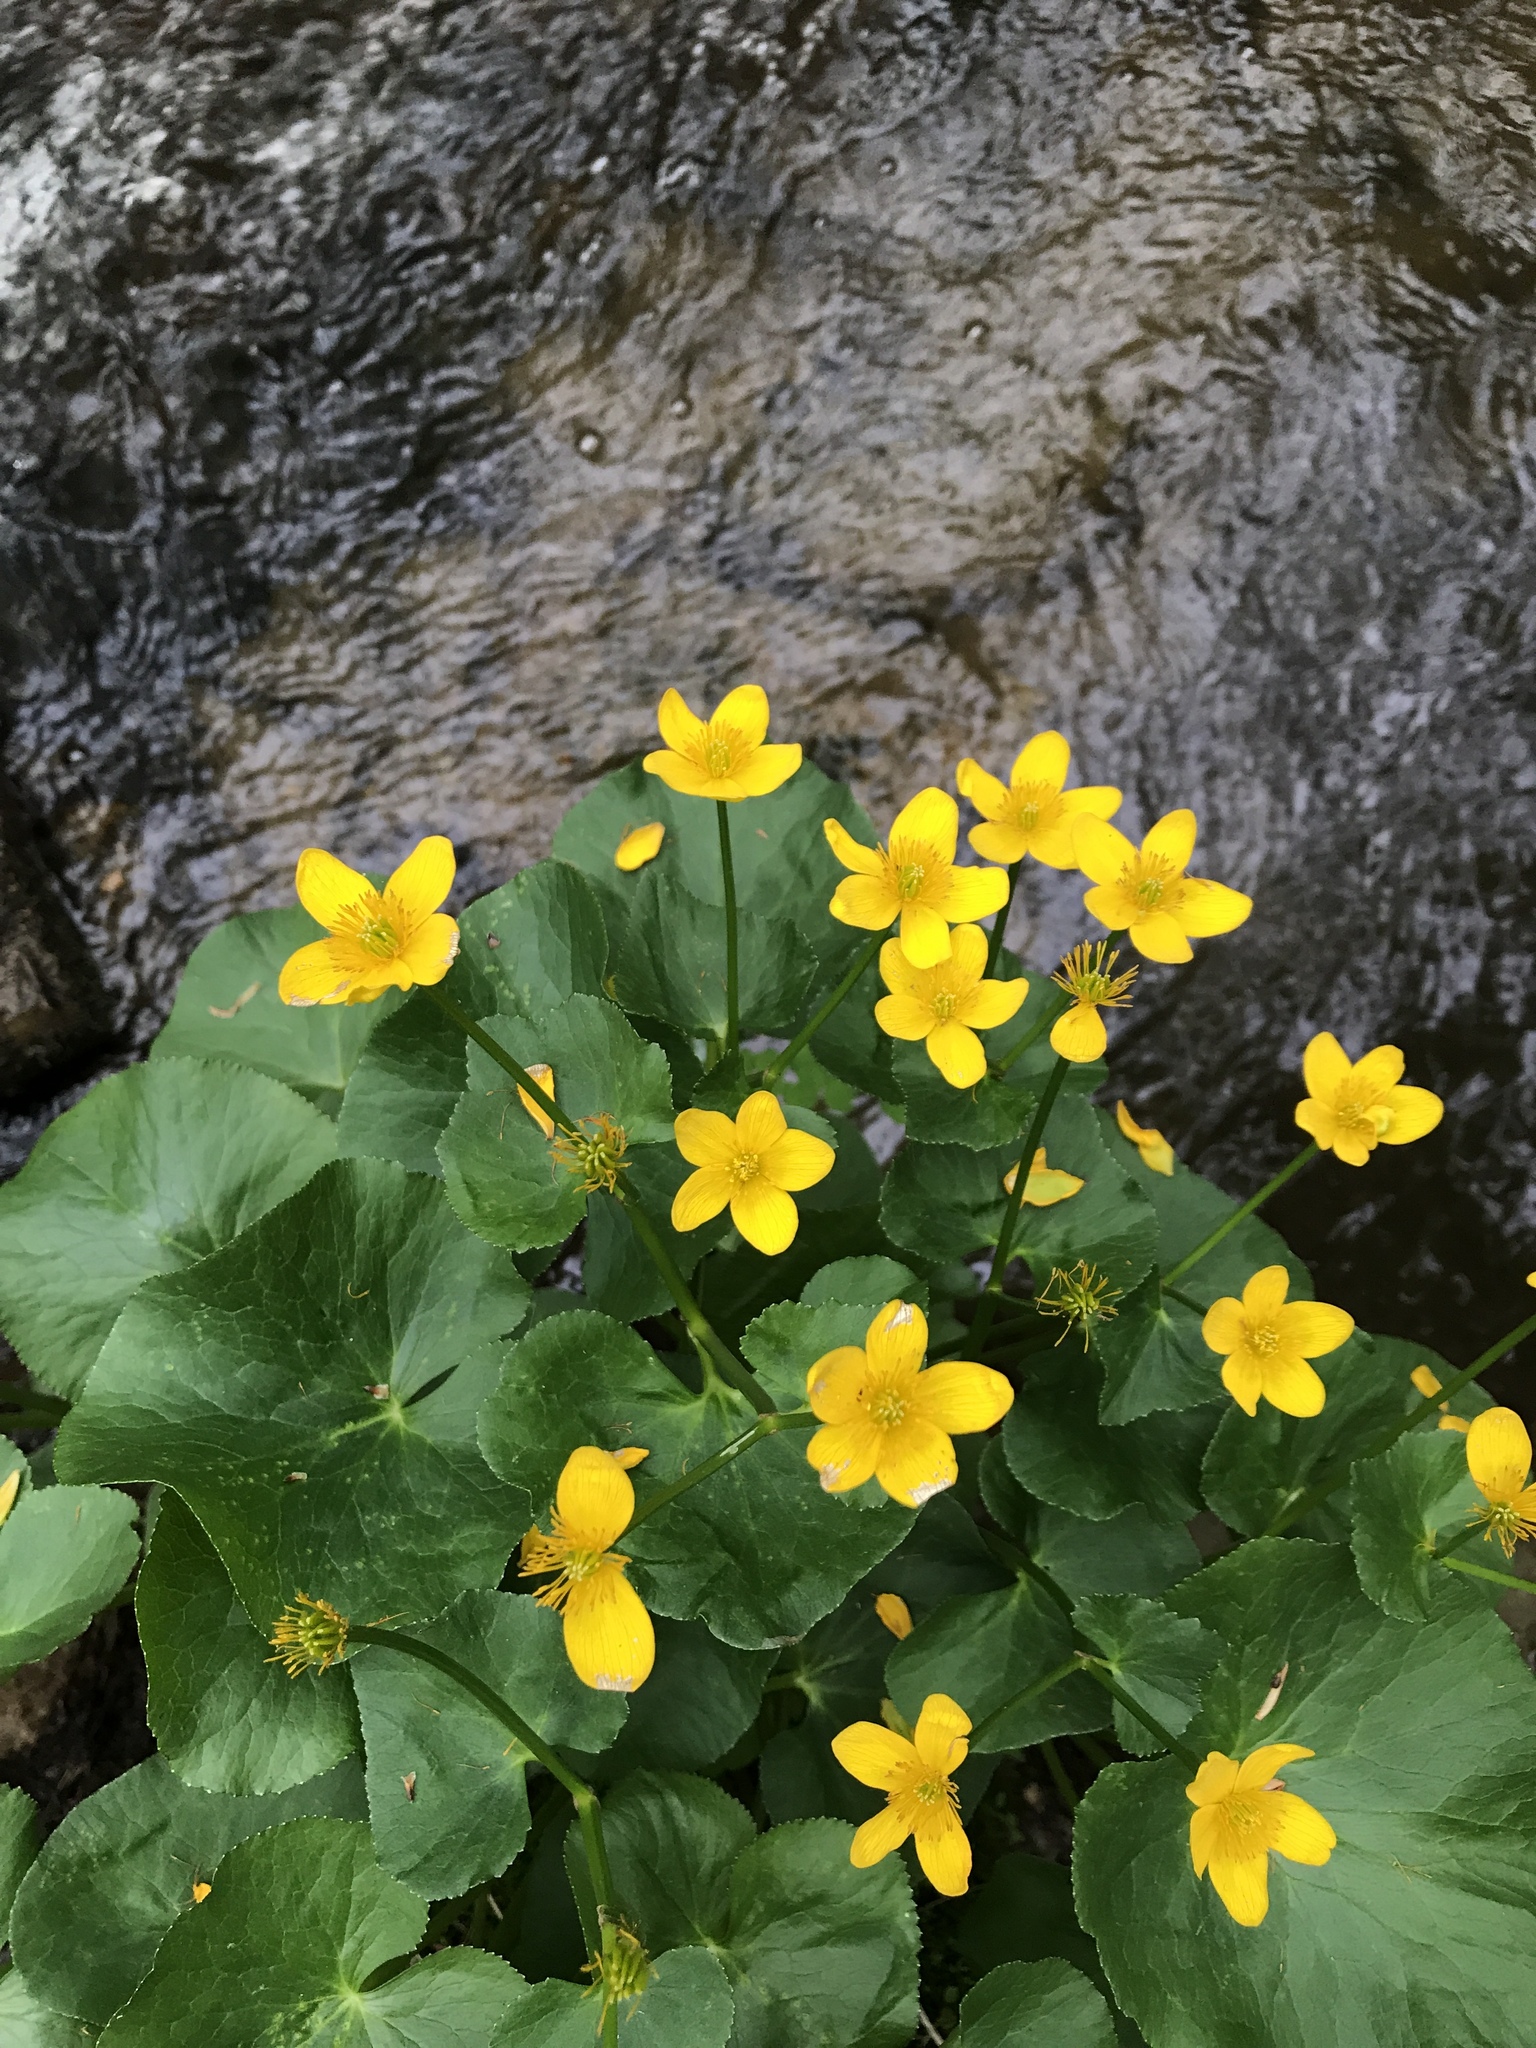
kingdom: Plantae
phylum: Tracheophyta
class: Magnoliopsida
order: Ranunculales
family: Ranunculaceae
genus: Caltha
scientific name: Caltha palustris
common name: Marsh marigold
